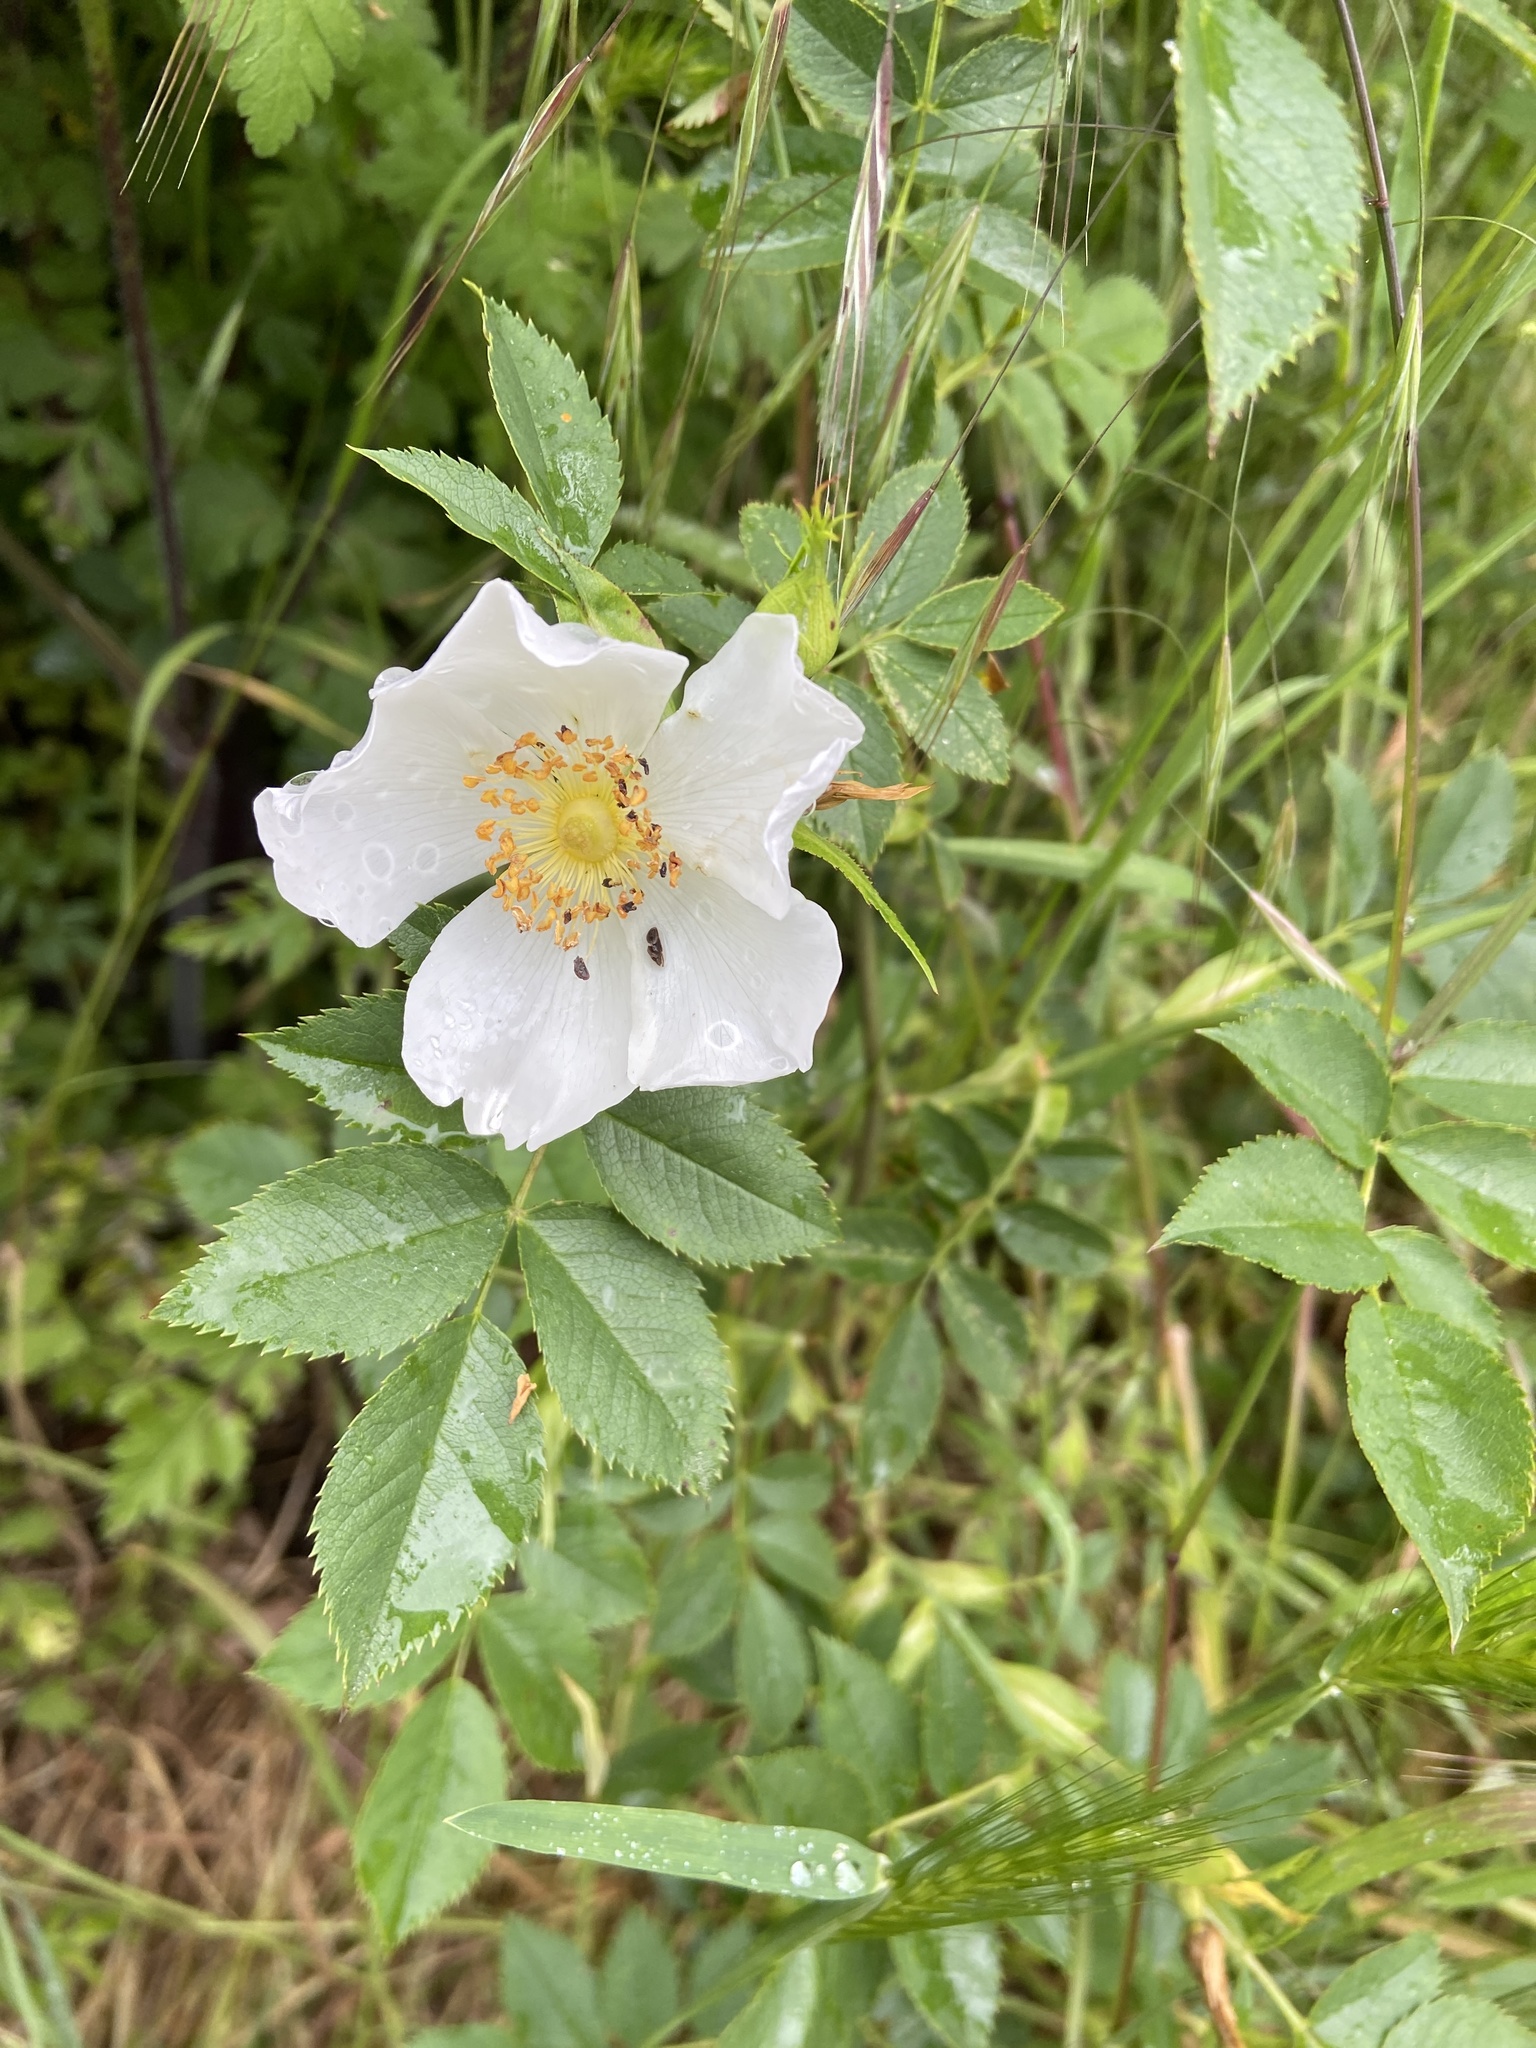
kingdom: Plantae
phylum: Tracheophyta
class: Magnoliopsida
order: Rosales
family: Rosaceae
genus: Rosa
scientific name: Rosa canina
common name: Dog rose
